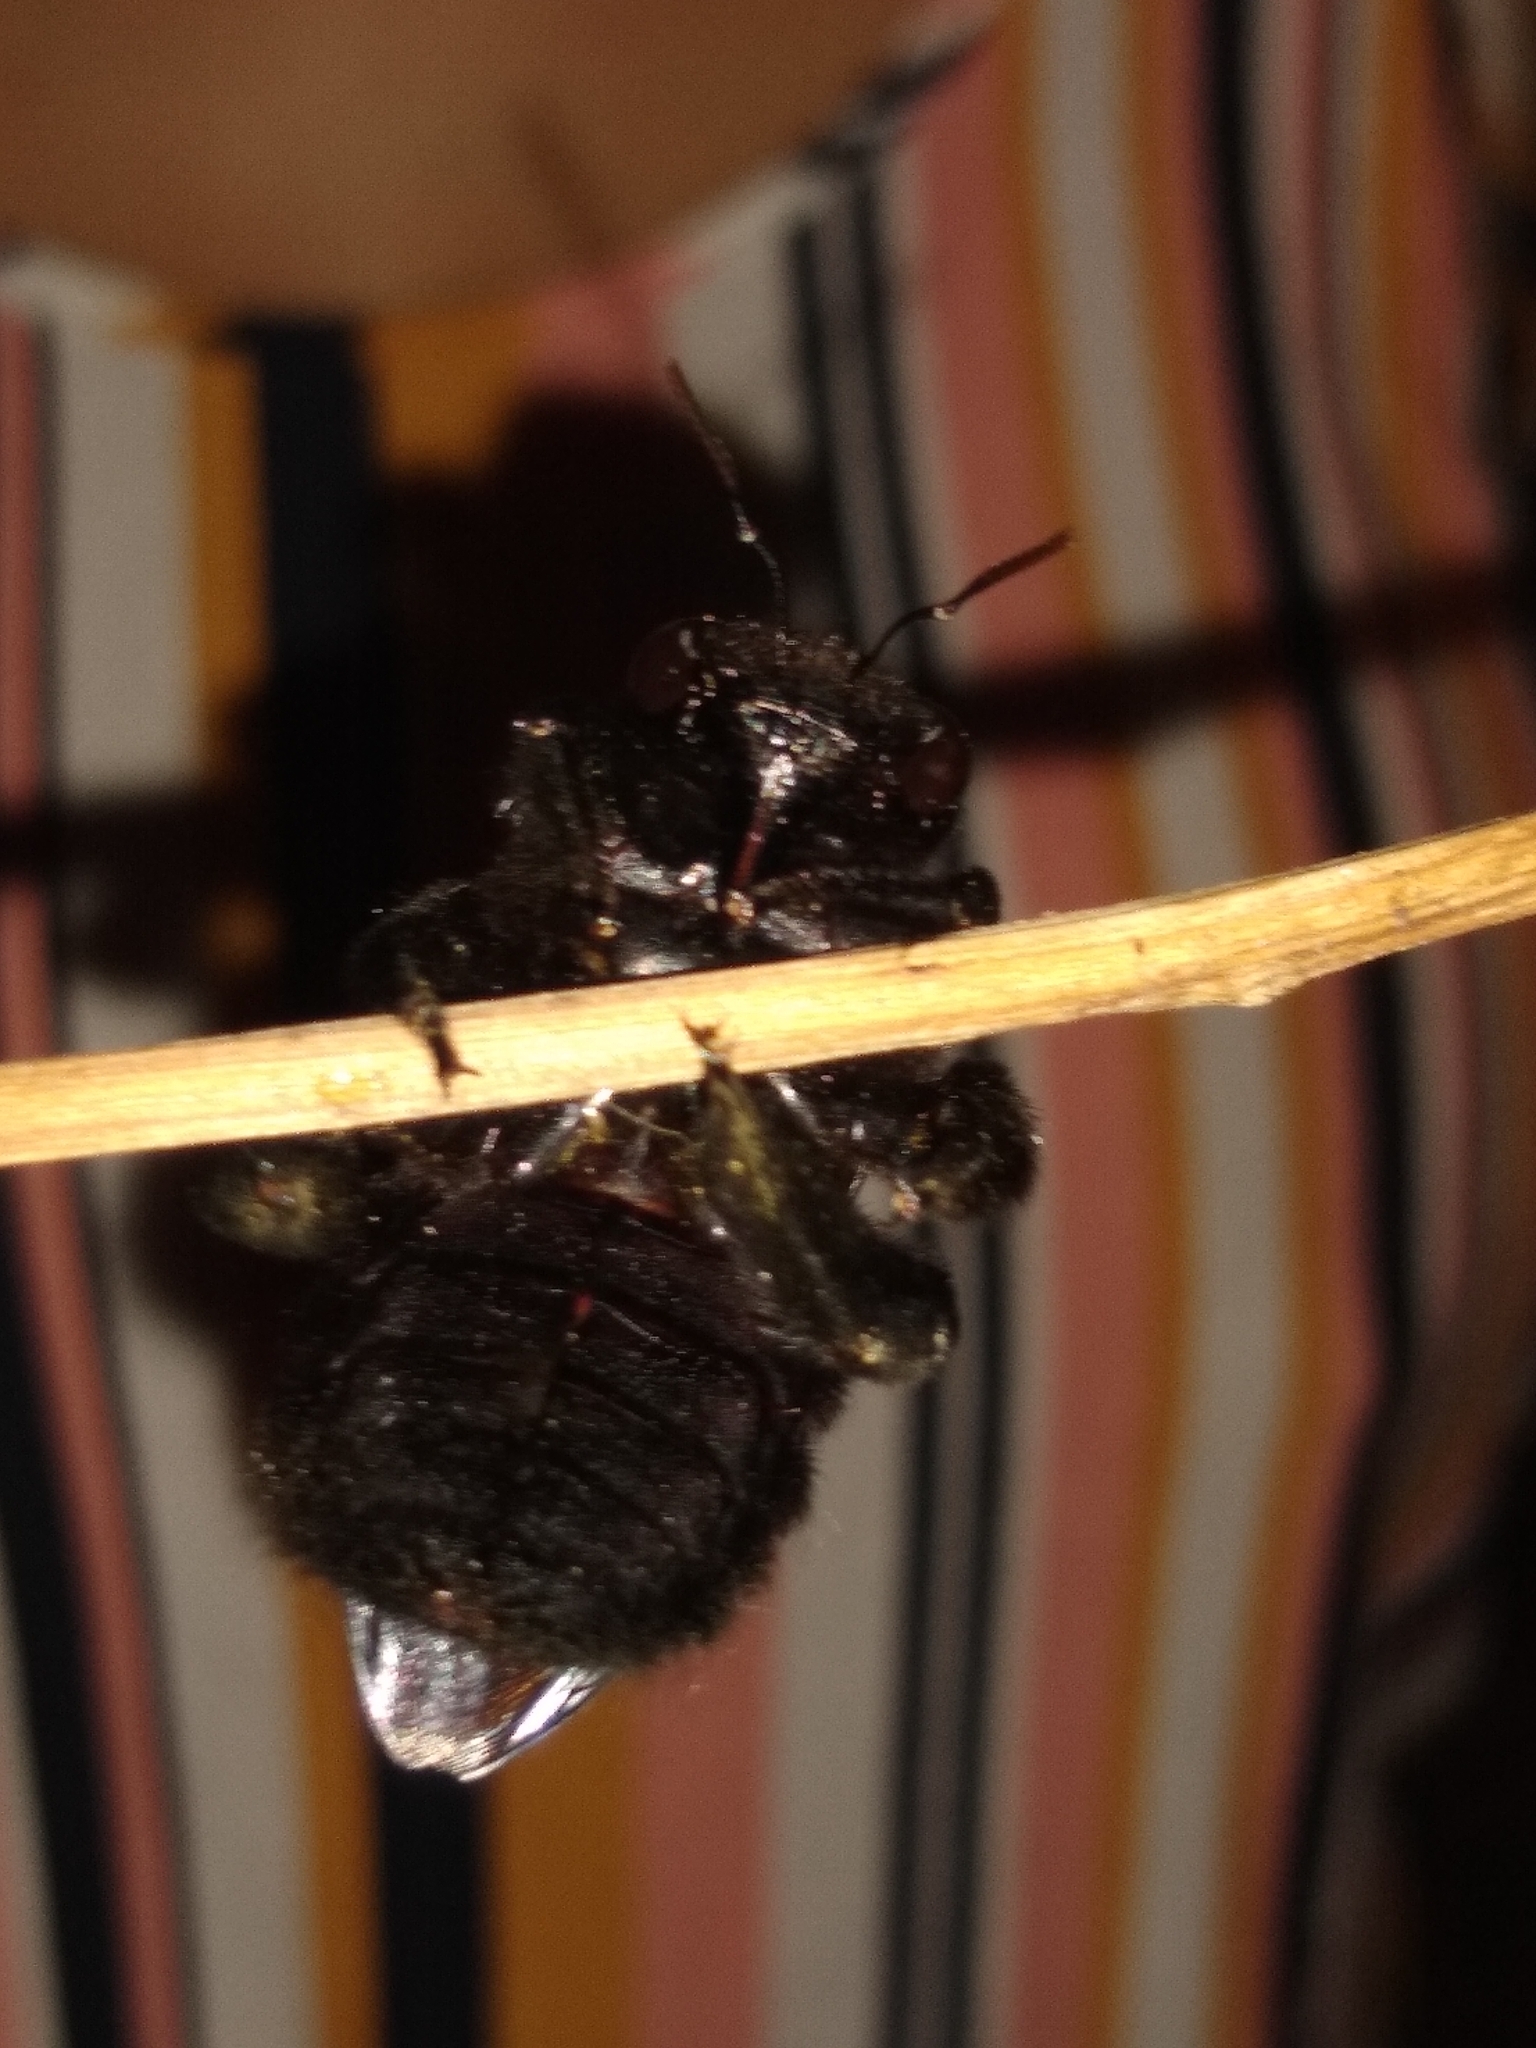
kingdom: Animalia
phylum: Arthropoda
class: Insecta
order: Hymenoptera
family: Apidae
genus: Xylocopa
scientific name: Xylocopa frontalis
